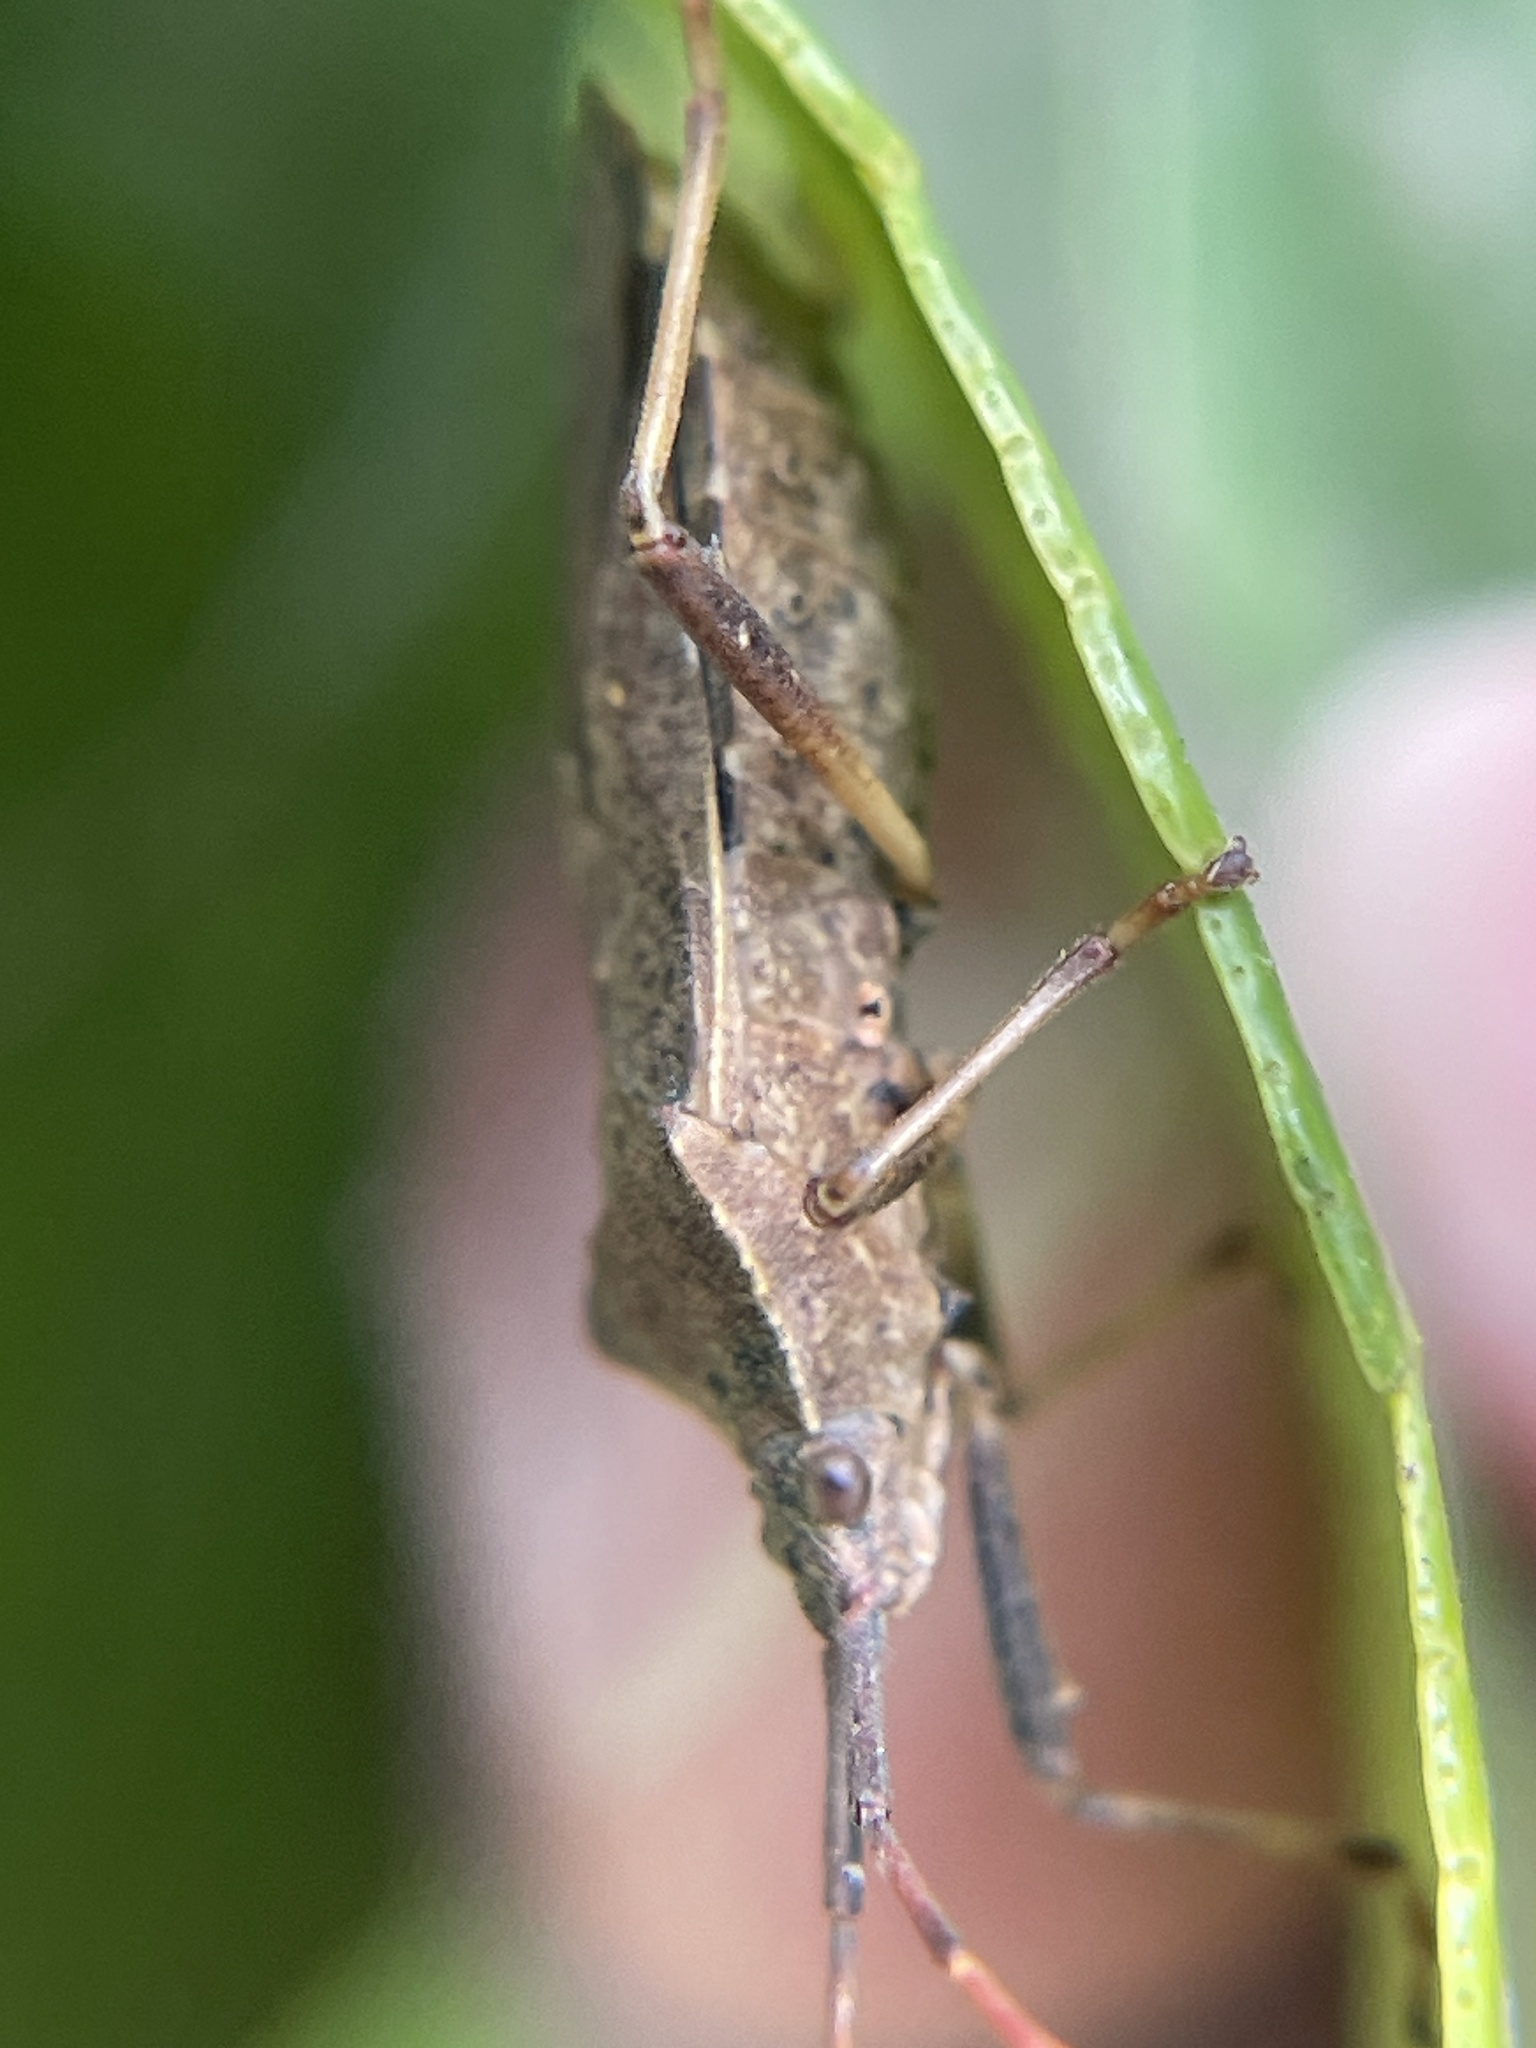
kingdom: Animalia
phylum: Arthropoda
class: Insecta
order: Hemiptera
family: Coreidae
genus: Gelonus
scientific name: Gelonus tasmanicus
